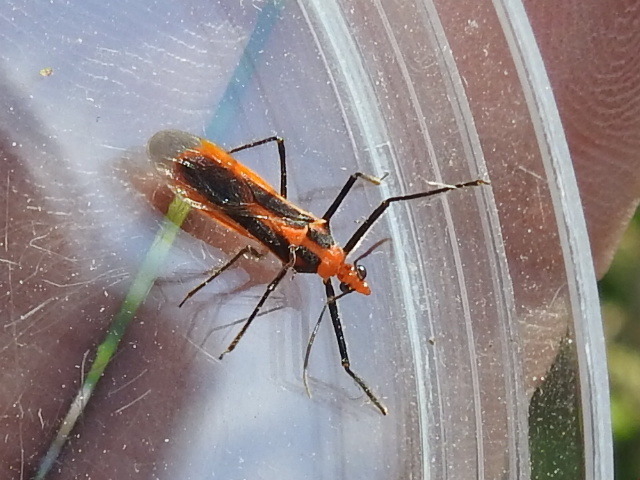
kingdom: Animalia
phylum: Arthropoda
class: Insecta
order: Hemiptera
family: Reduviidae
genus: Repipta
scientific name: Repipta taurus
